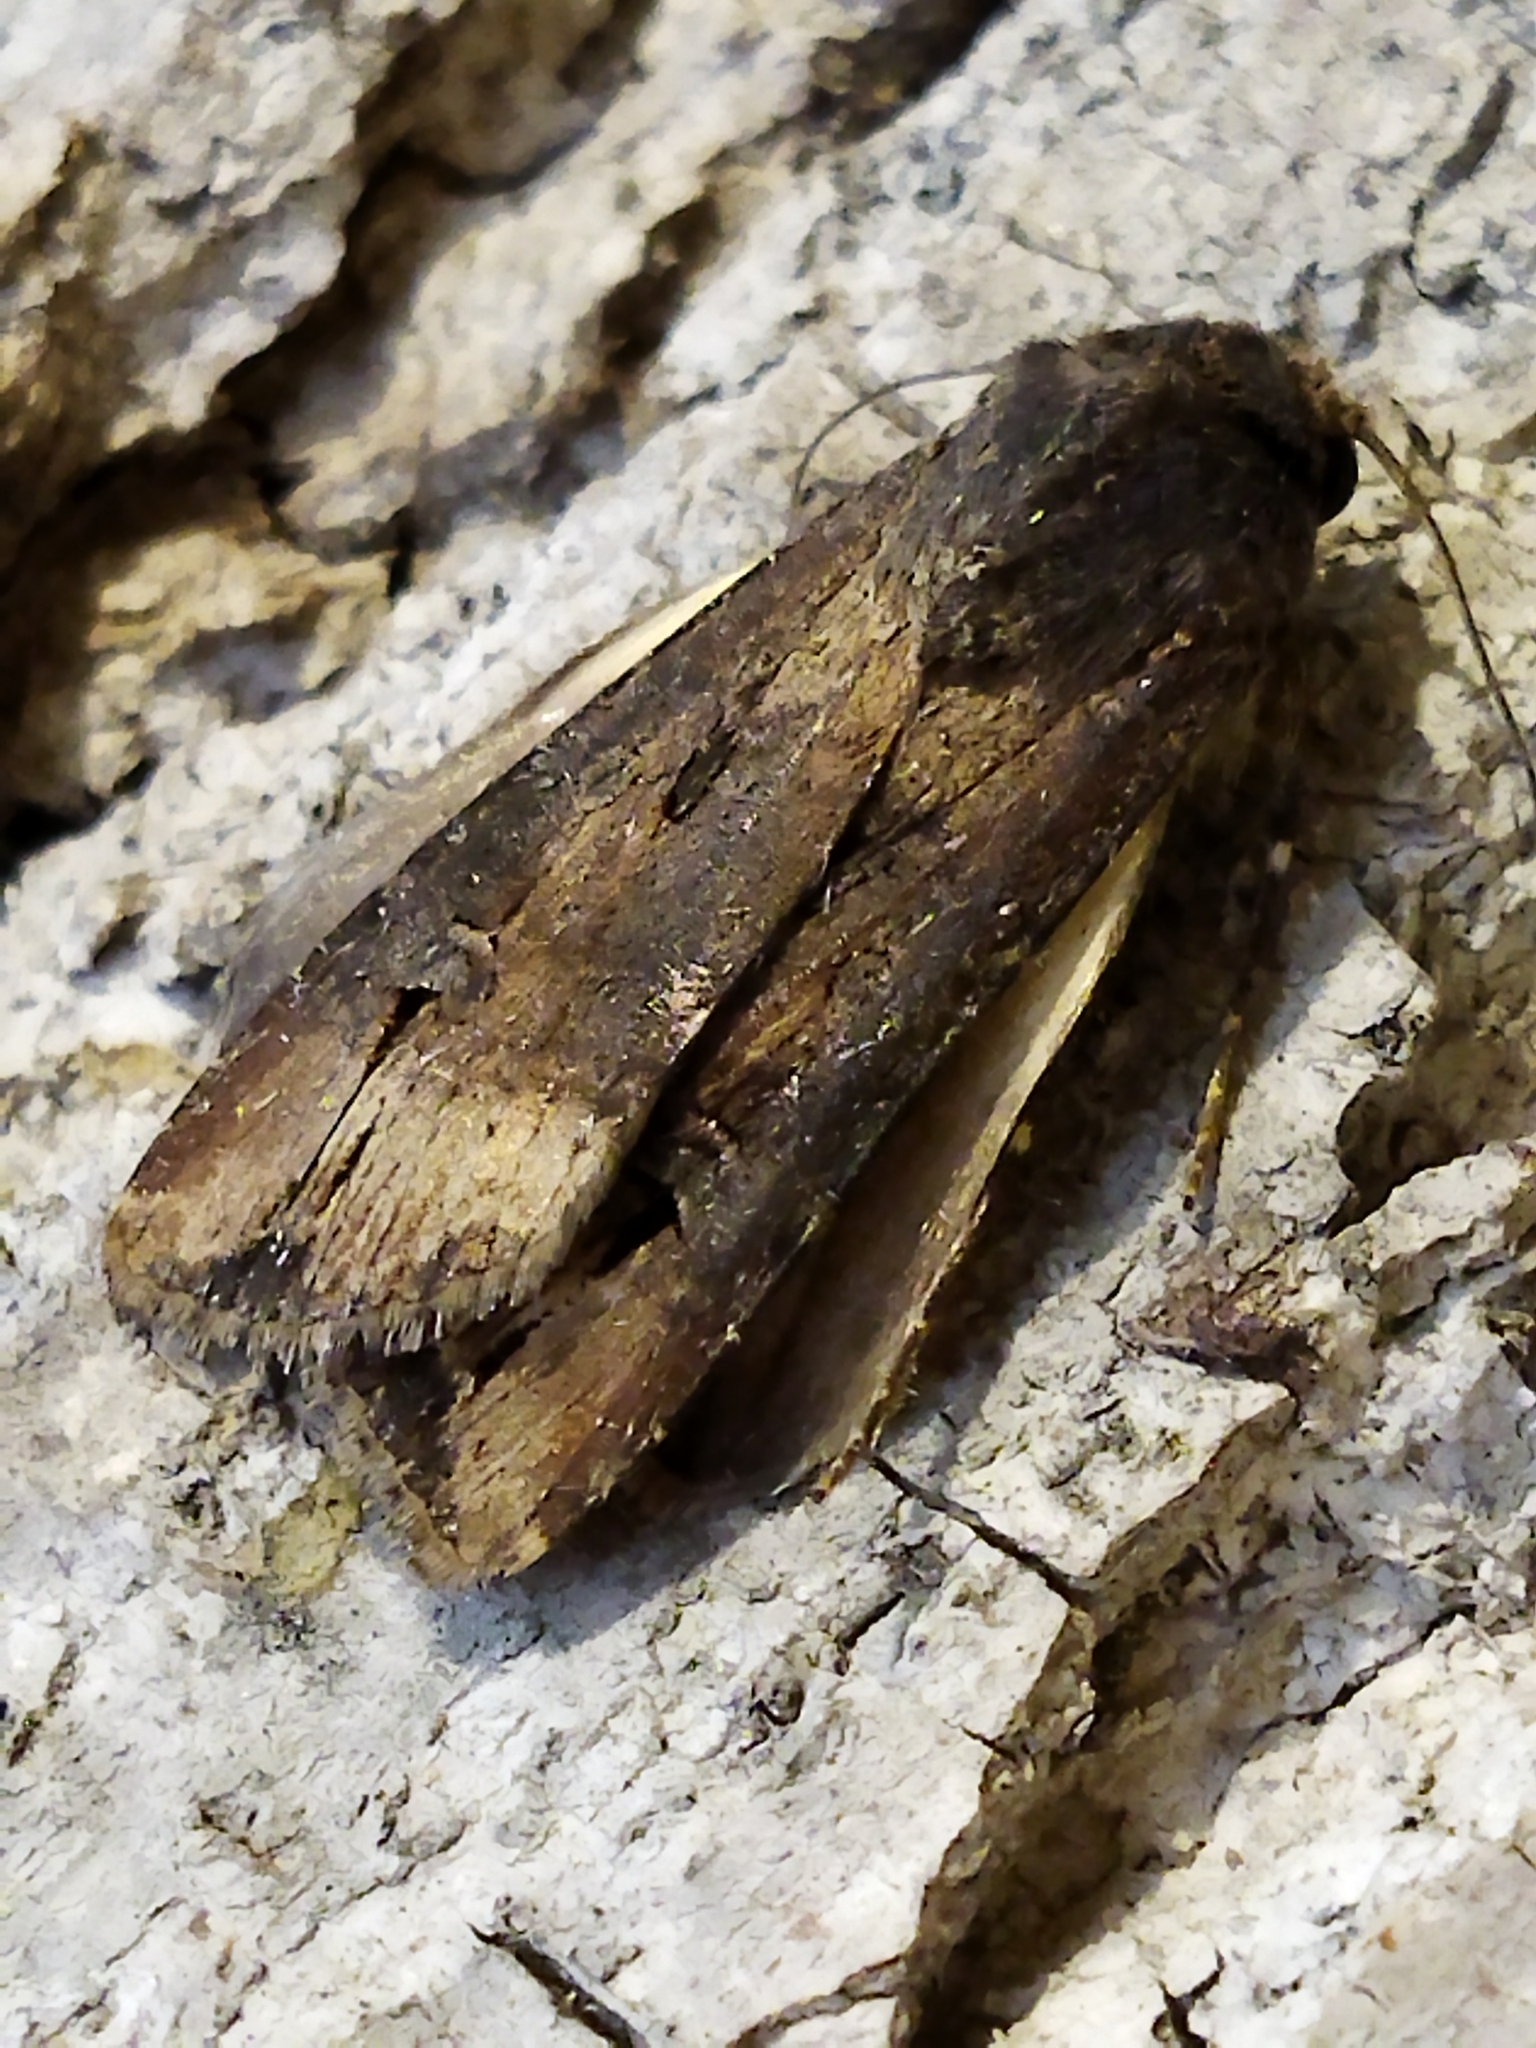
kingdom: Animalia
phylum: Arthropoda
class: Insecta
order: Lepidoptera
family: Noctuidae
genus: Agrotis
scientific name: Agrotis ipsilon
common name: Dark sword-grass
